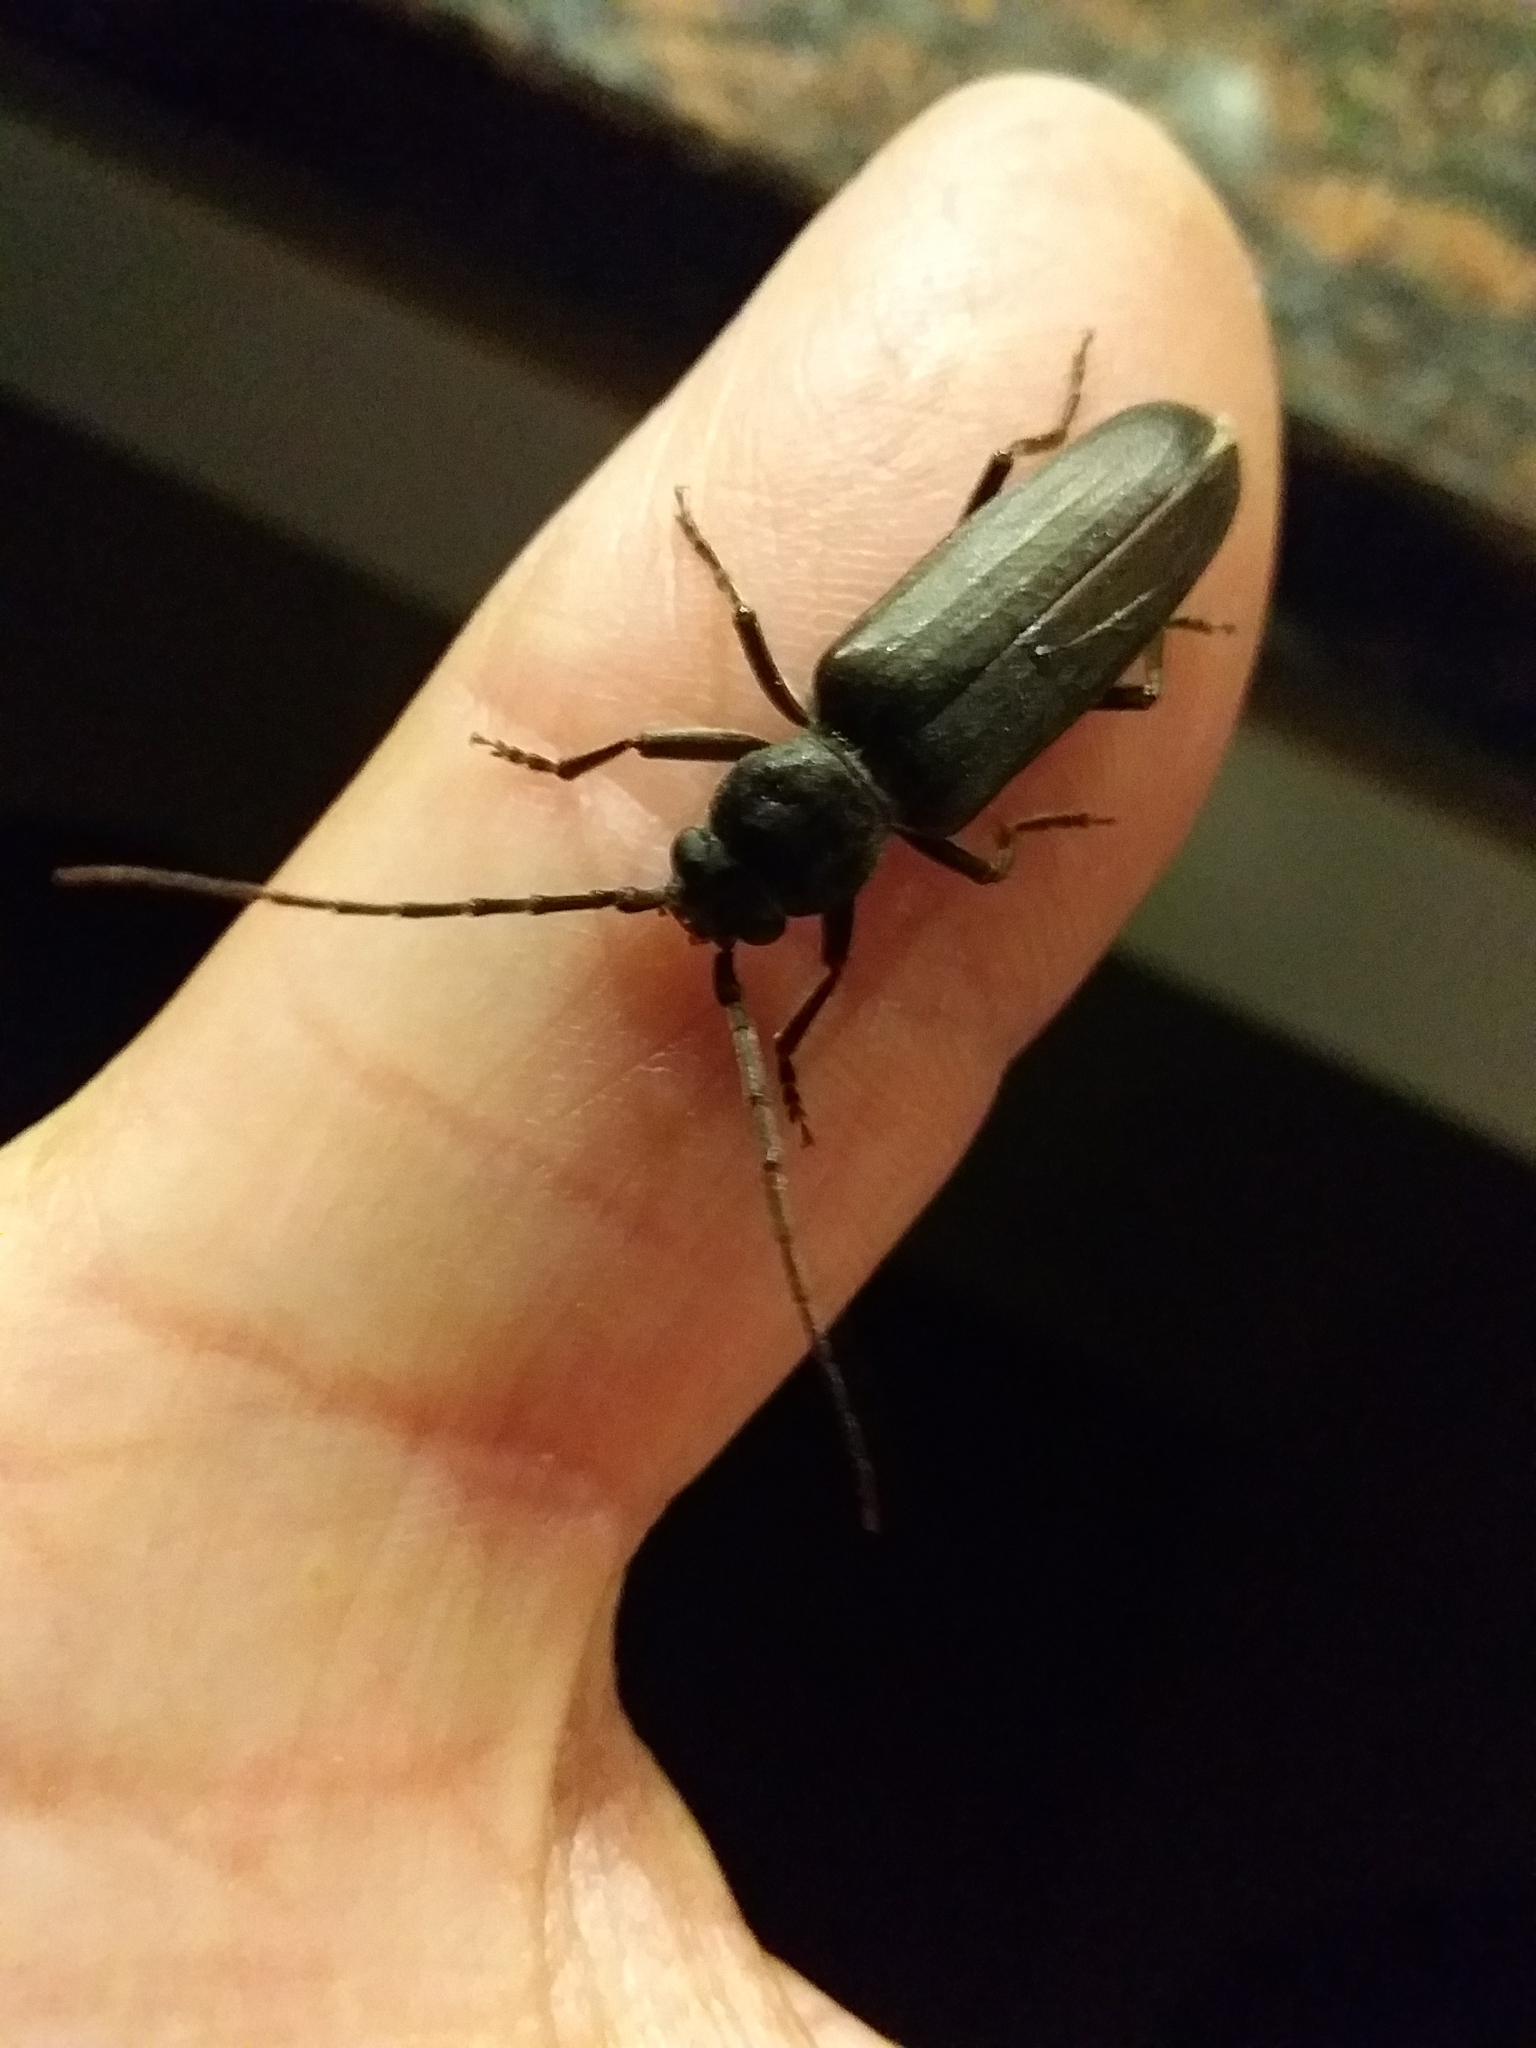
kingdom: Animalia
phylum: Arthropoda
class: Insecta
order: Coleoptera
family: Cerambycidae
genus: Arhopalus
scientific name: Arhopalus ferus
